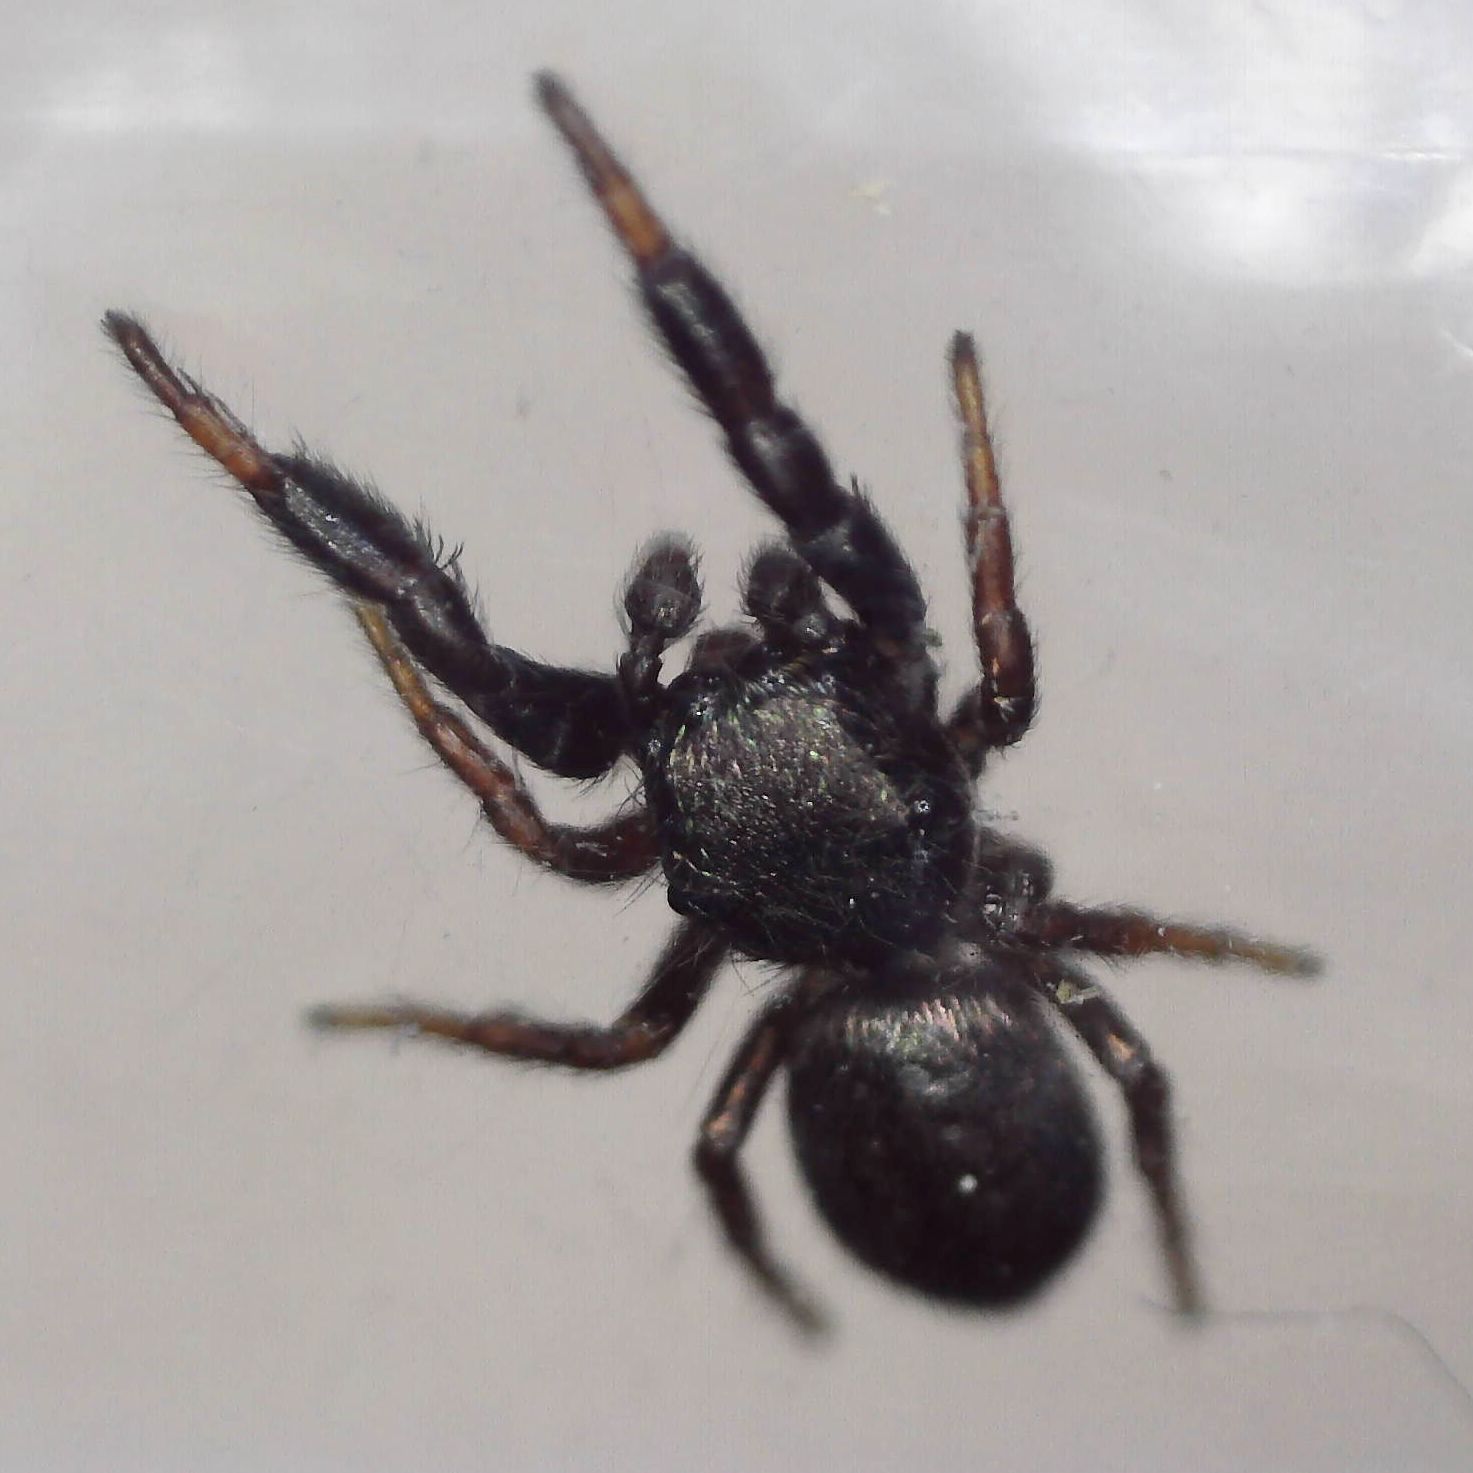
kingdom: Animalia
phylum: Arthropoda
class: Arachnida
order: Araneae
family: Salticidae
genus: Sibianor
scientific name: Sibianor aurocinctus
